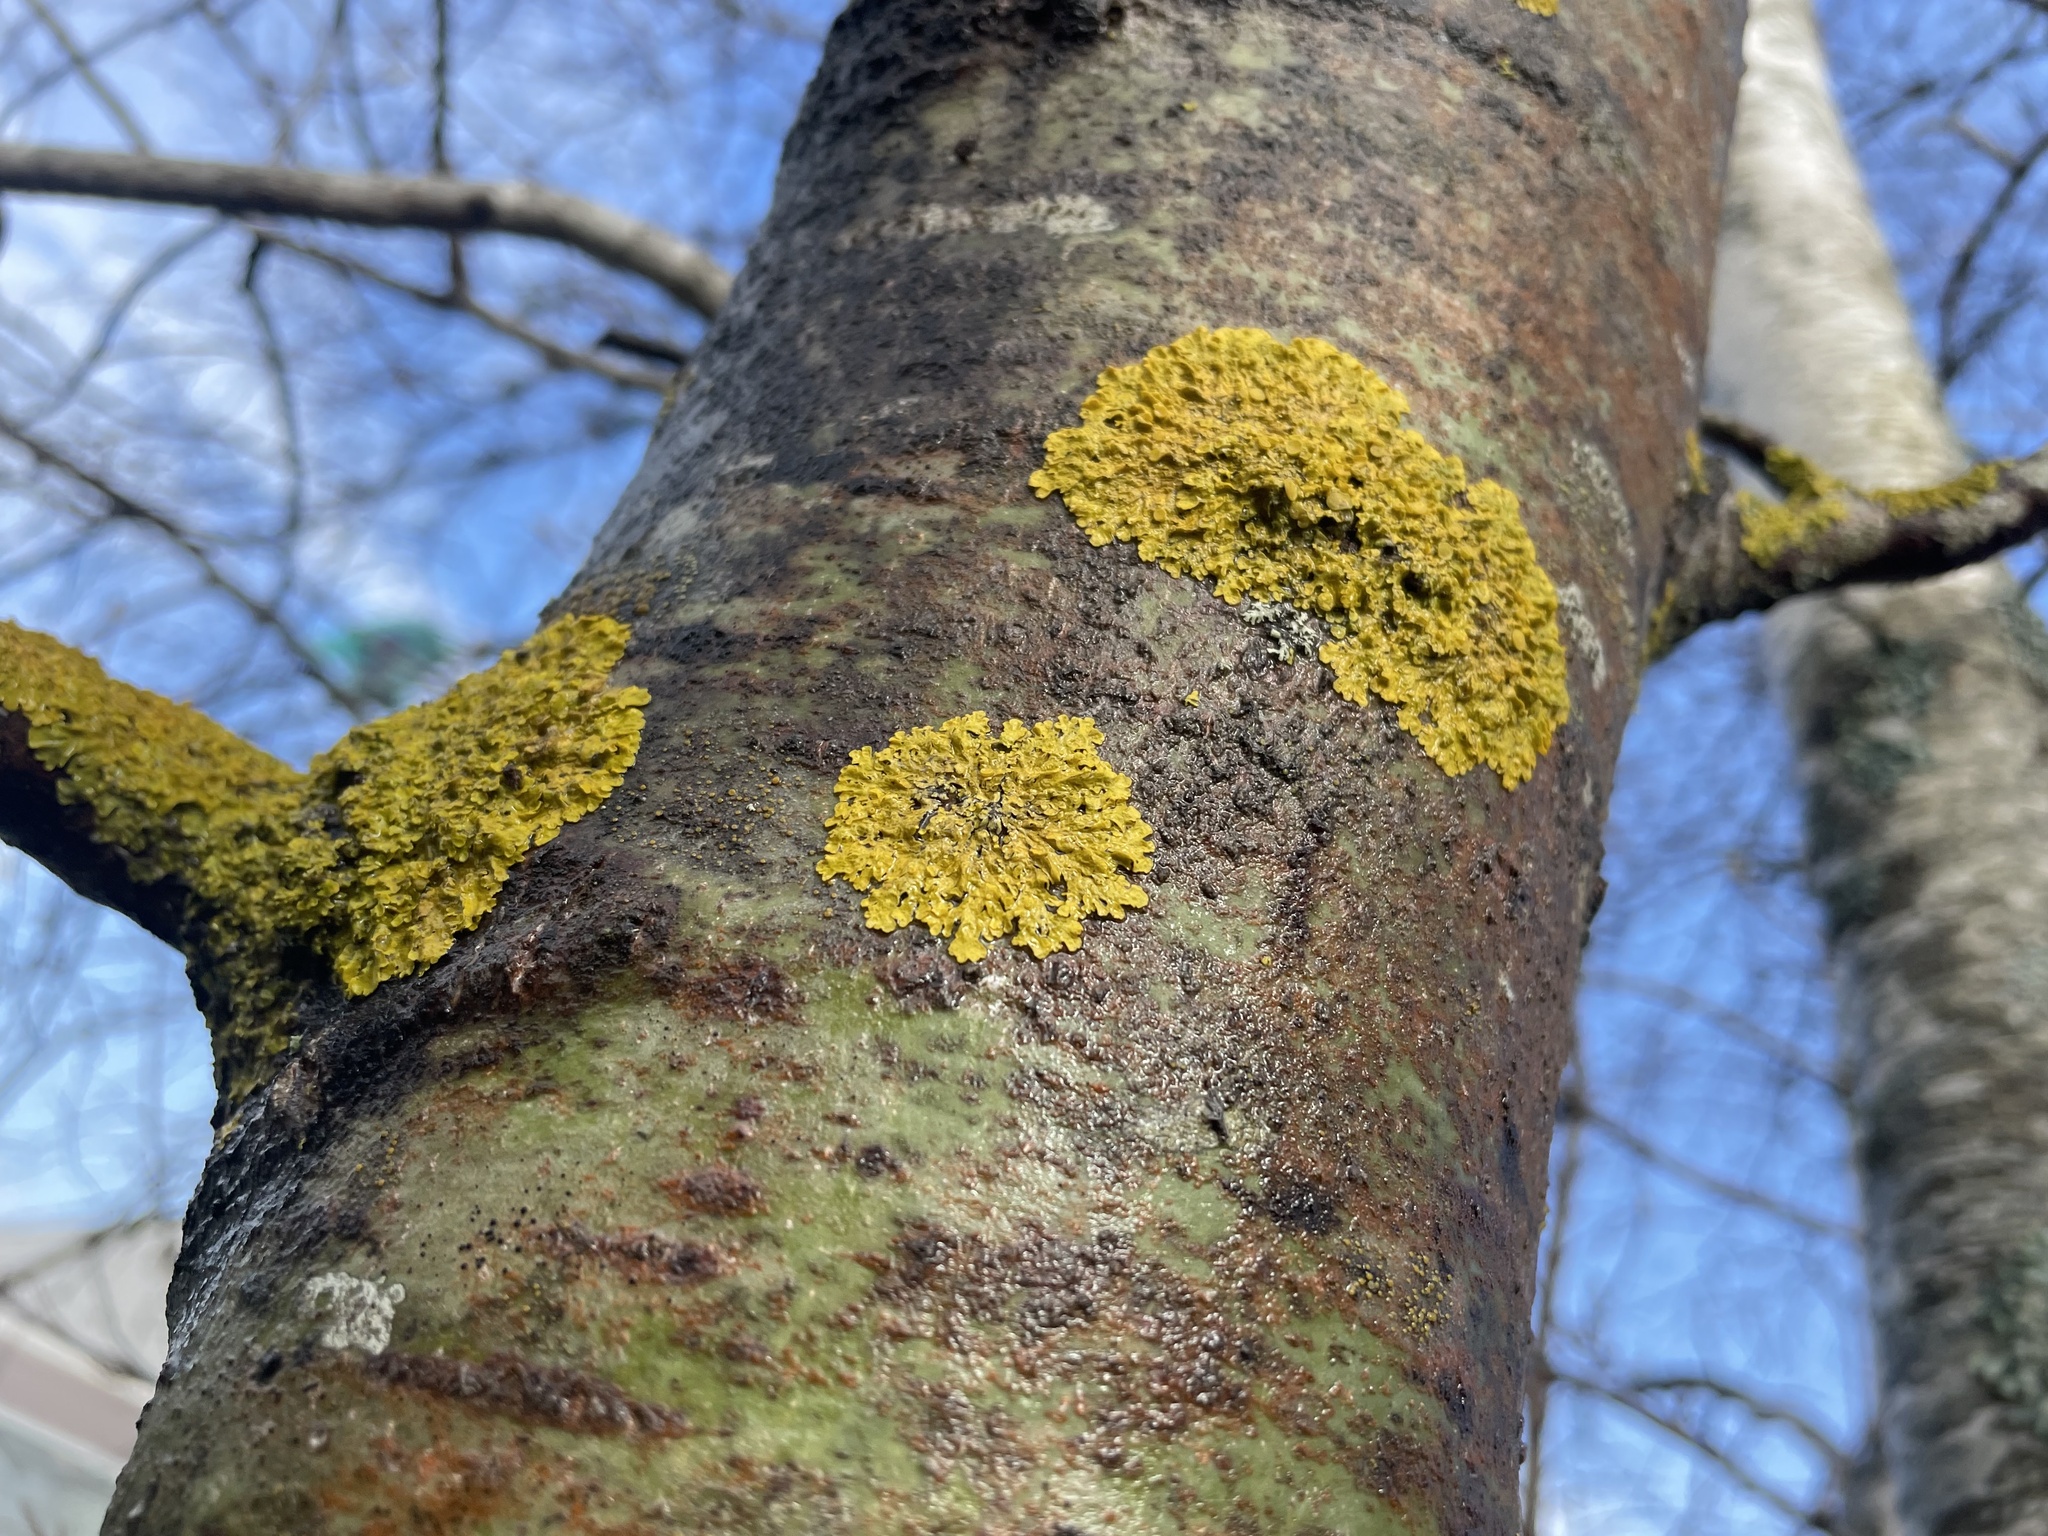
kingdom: Fungi
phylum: Ascomycota
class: Lecanoromycetes
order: Teloschistales
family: Teloschistaceae
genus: Xanthoria
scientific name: Xanthoria parietina
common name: Common orange lichen
